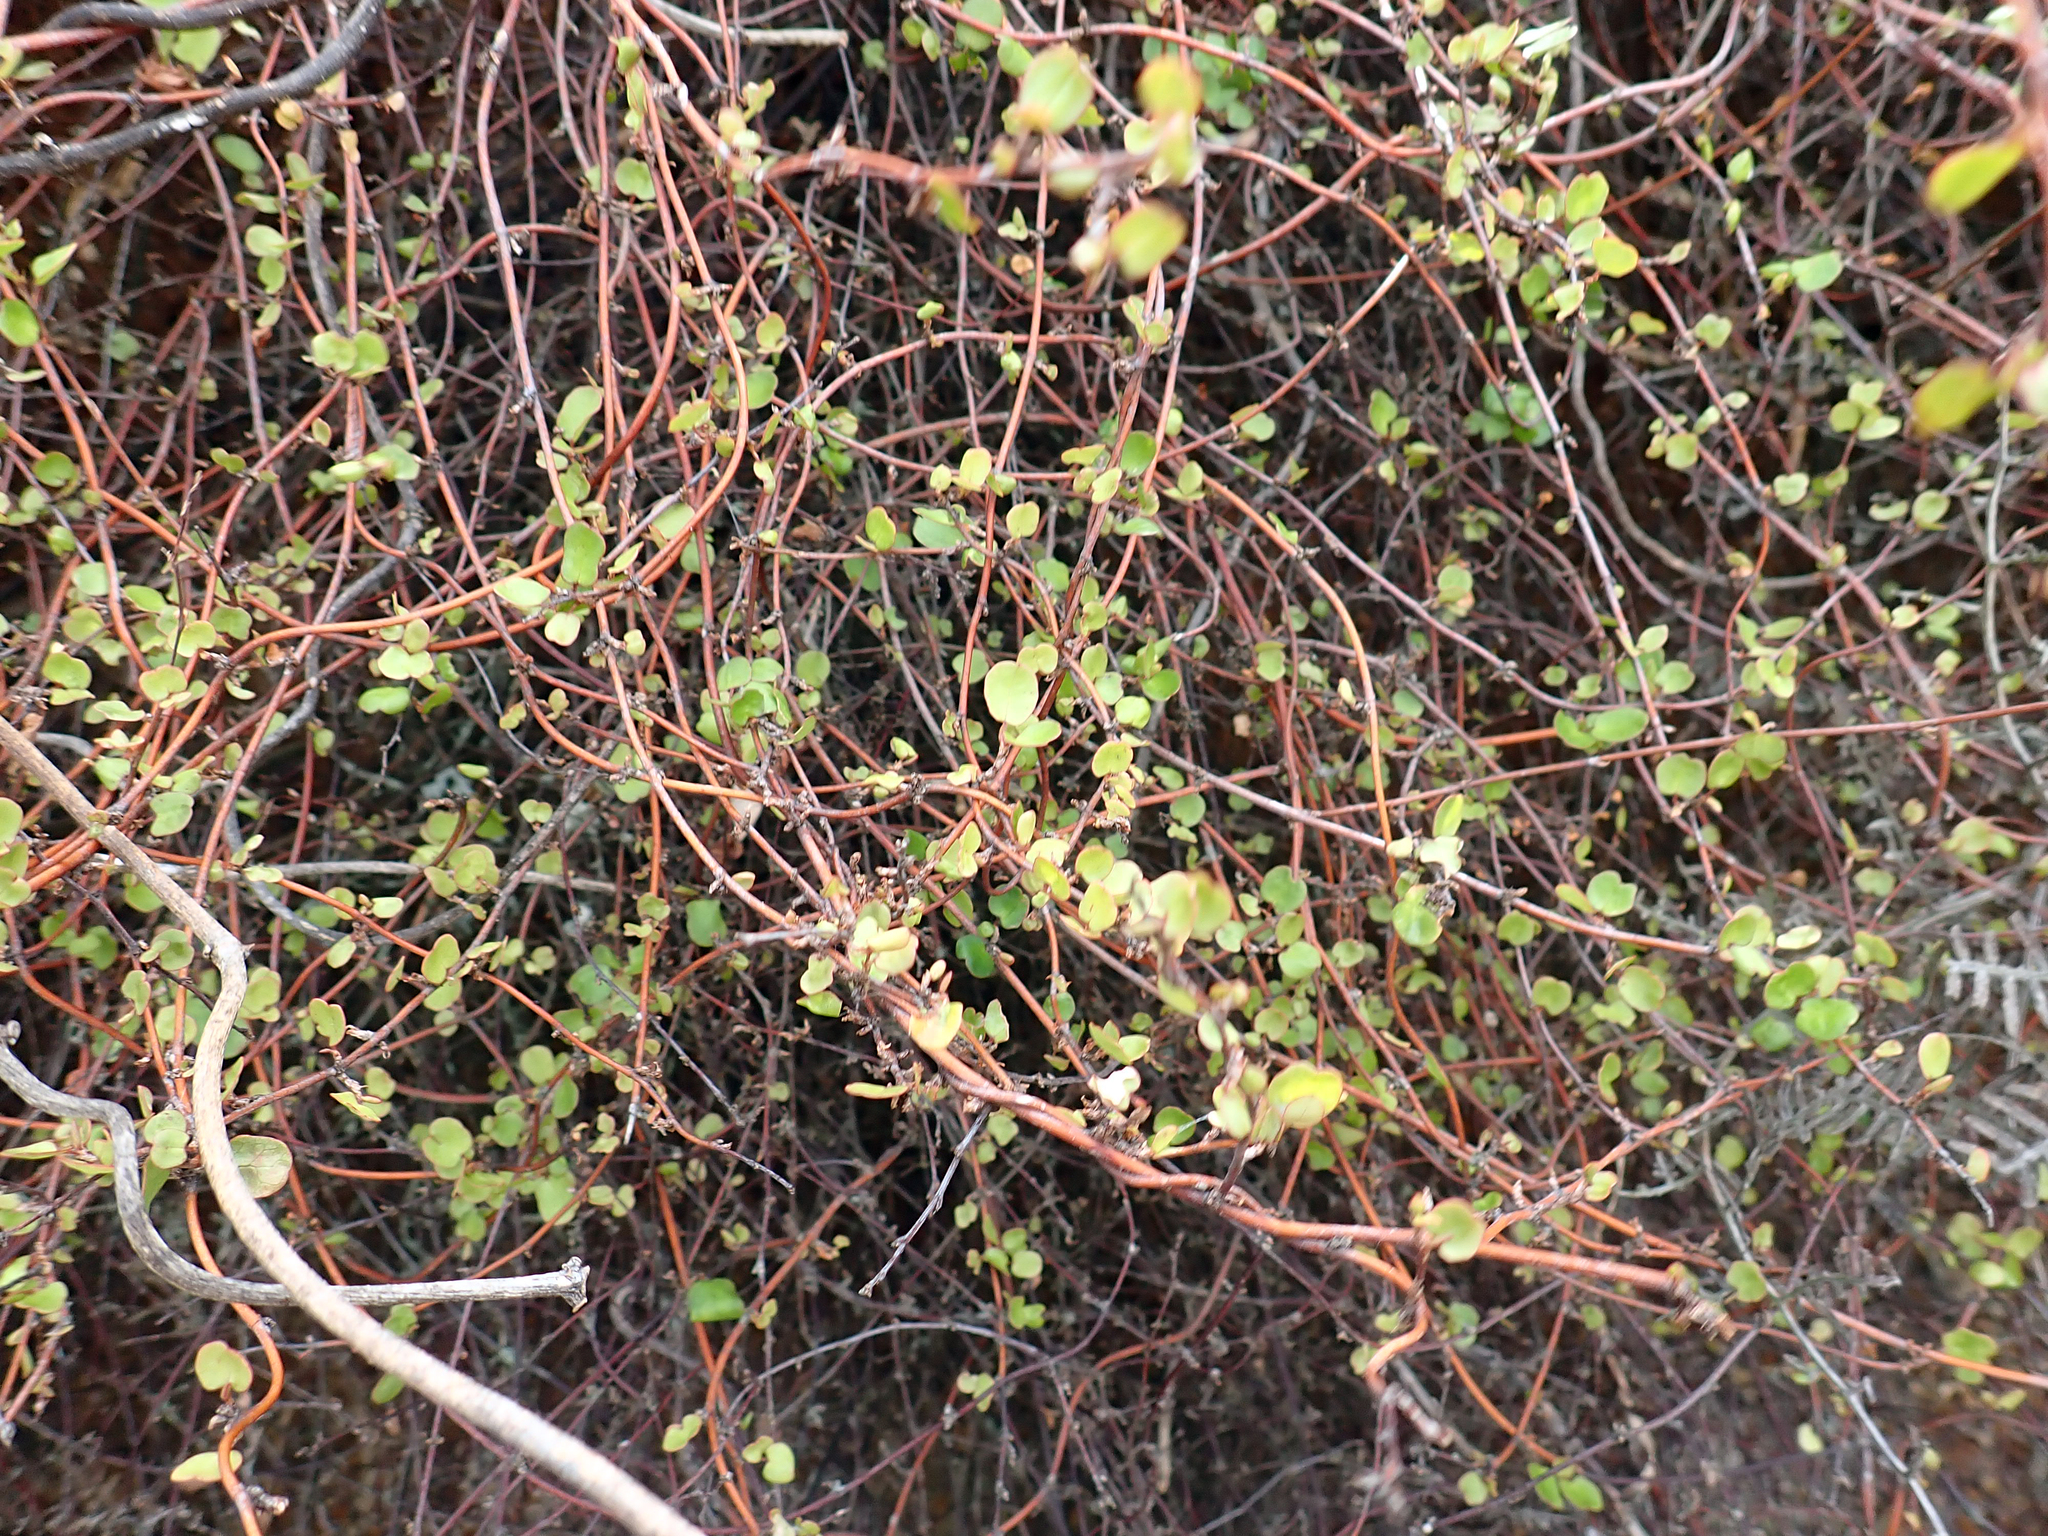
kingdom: Plantae
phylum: Tracheophyta
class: Magnoliopsida
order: Caryophyllales
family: Polygonaceae
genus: Muehlenbeckia
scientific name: Muehlenbeckia complexa
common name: Wireplant
